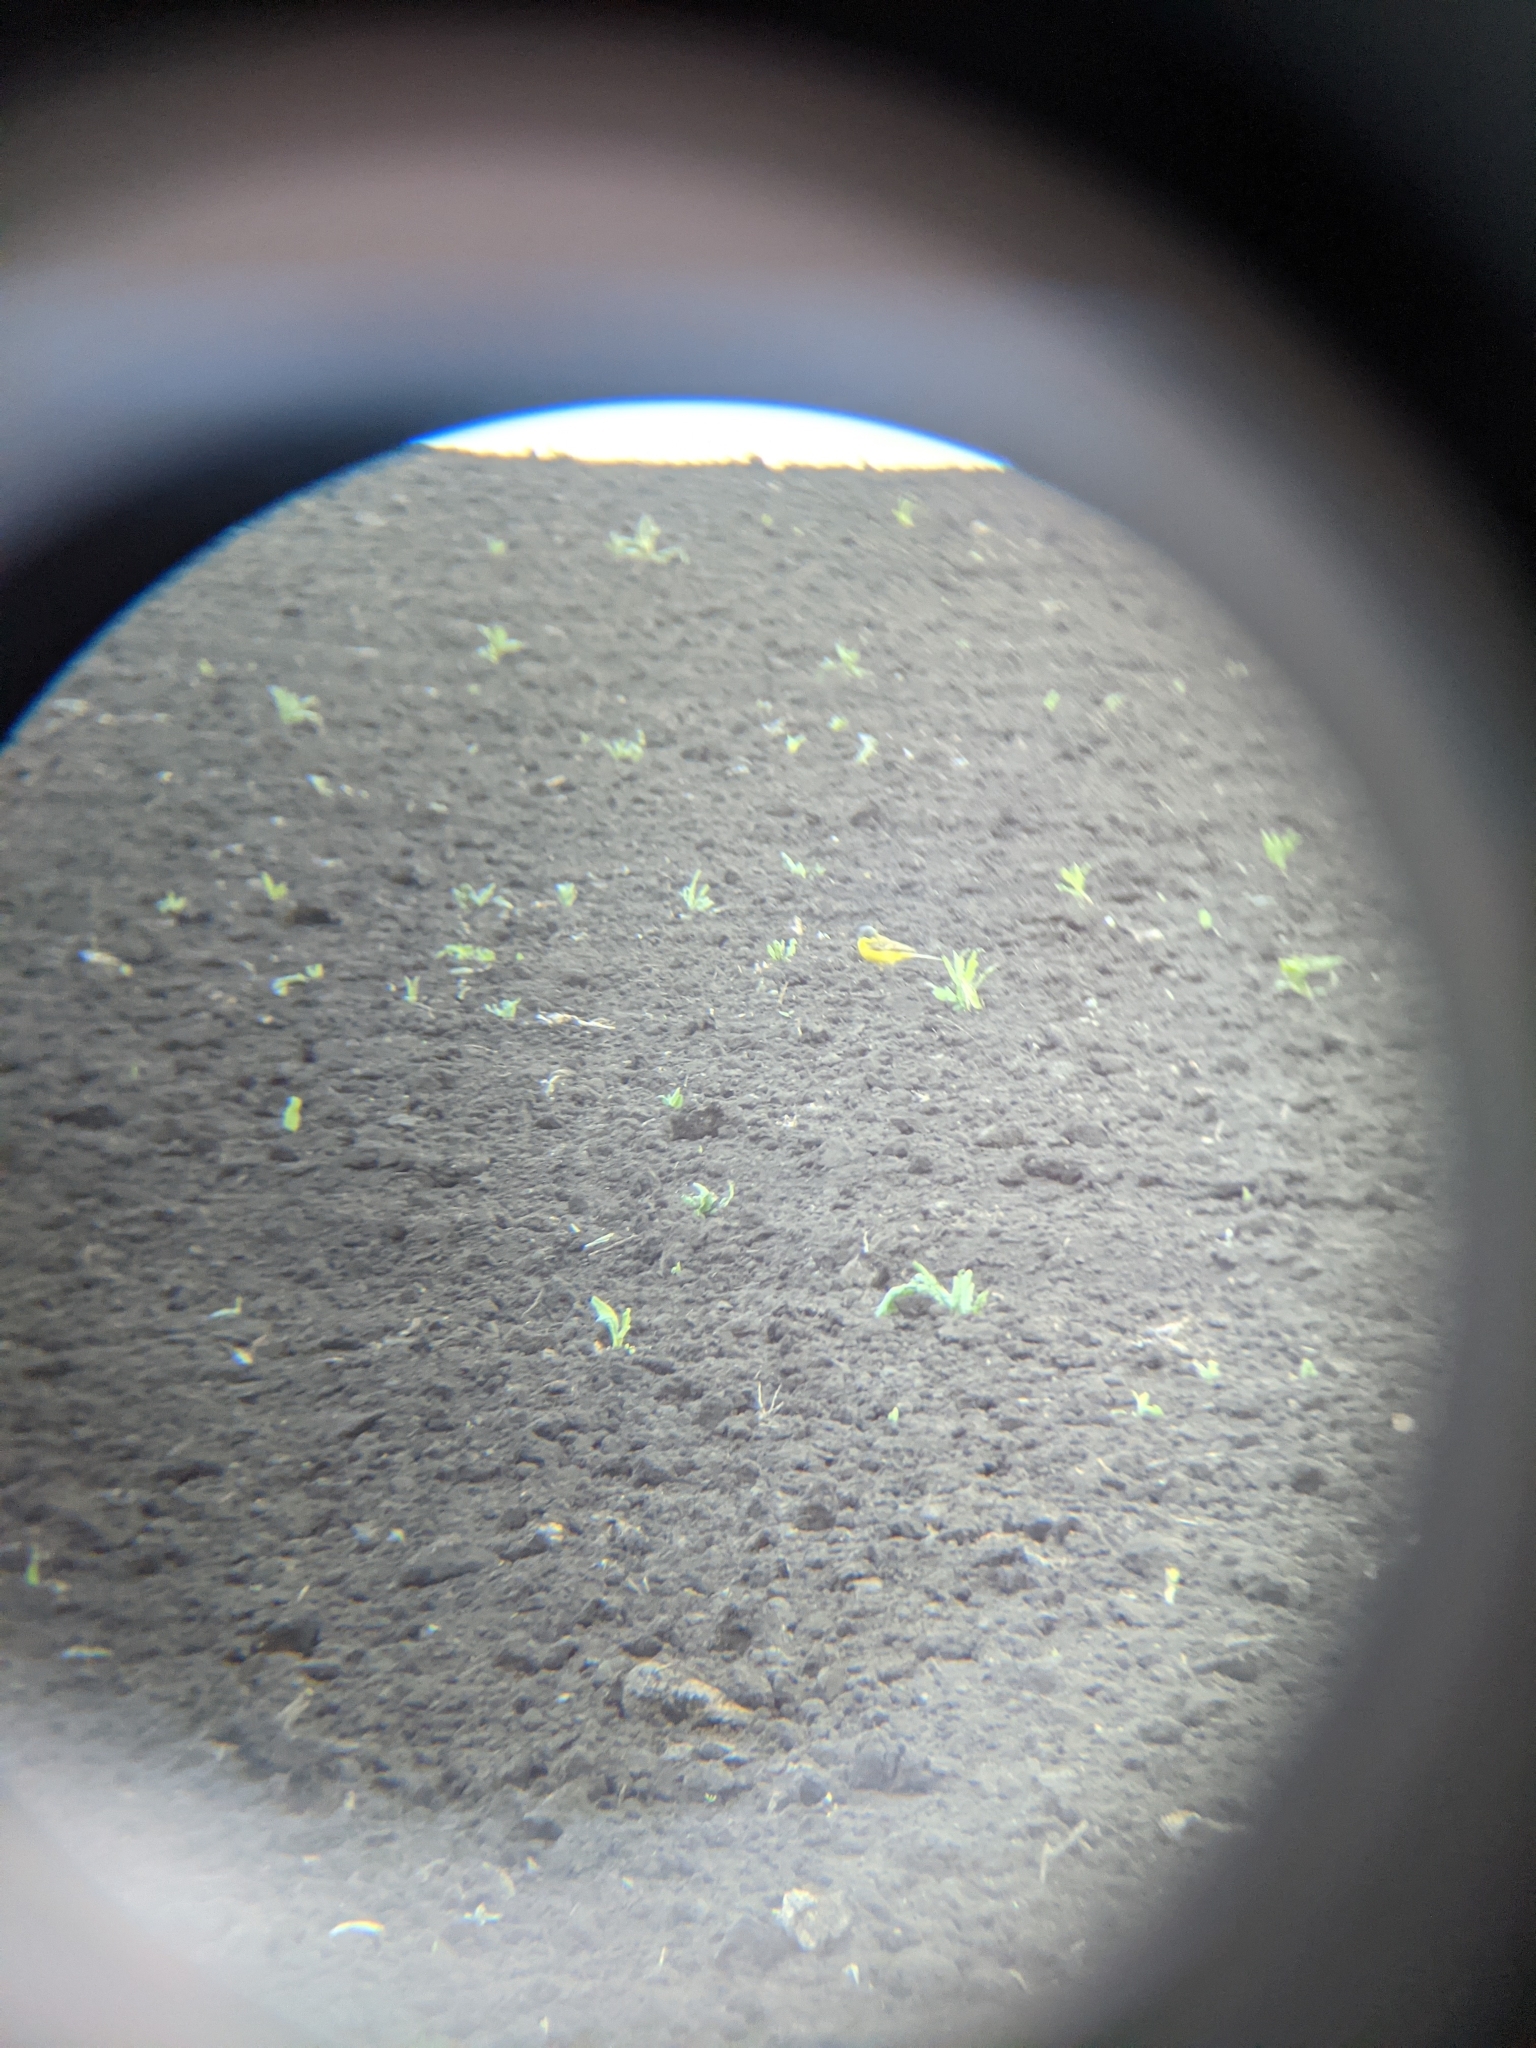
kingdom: Animalia
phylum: Chordata
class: Aves
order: Passeriformes
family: Motacillidae
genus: Motacilla
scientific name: Motacilla flava
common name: Western yellow wagtail
